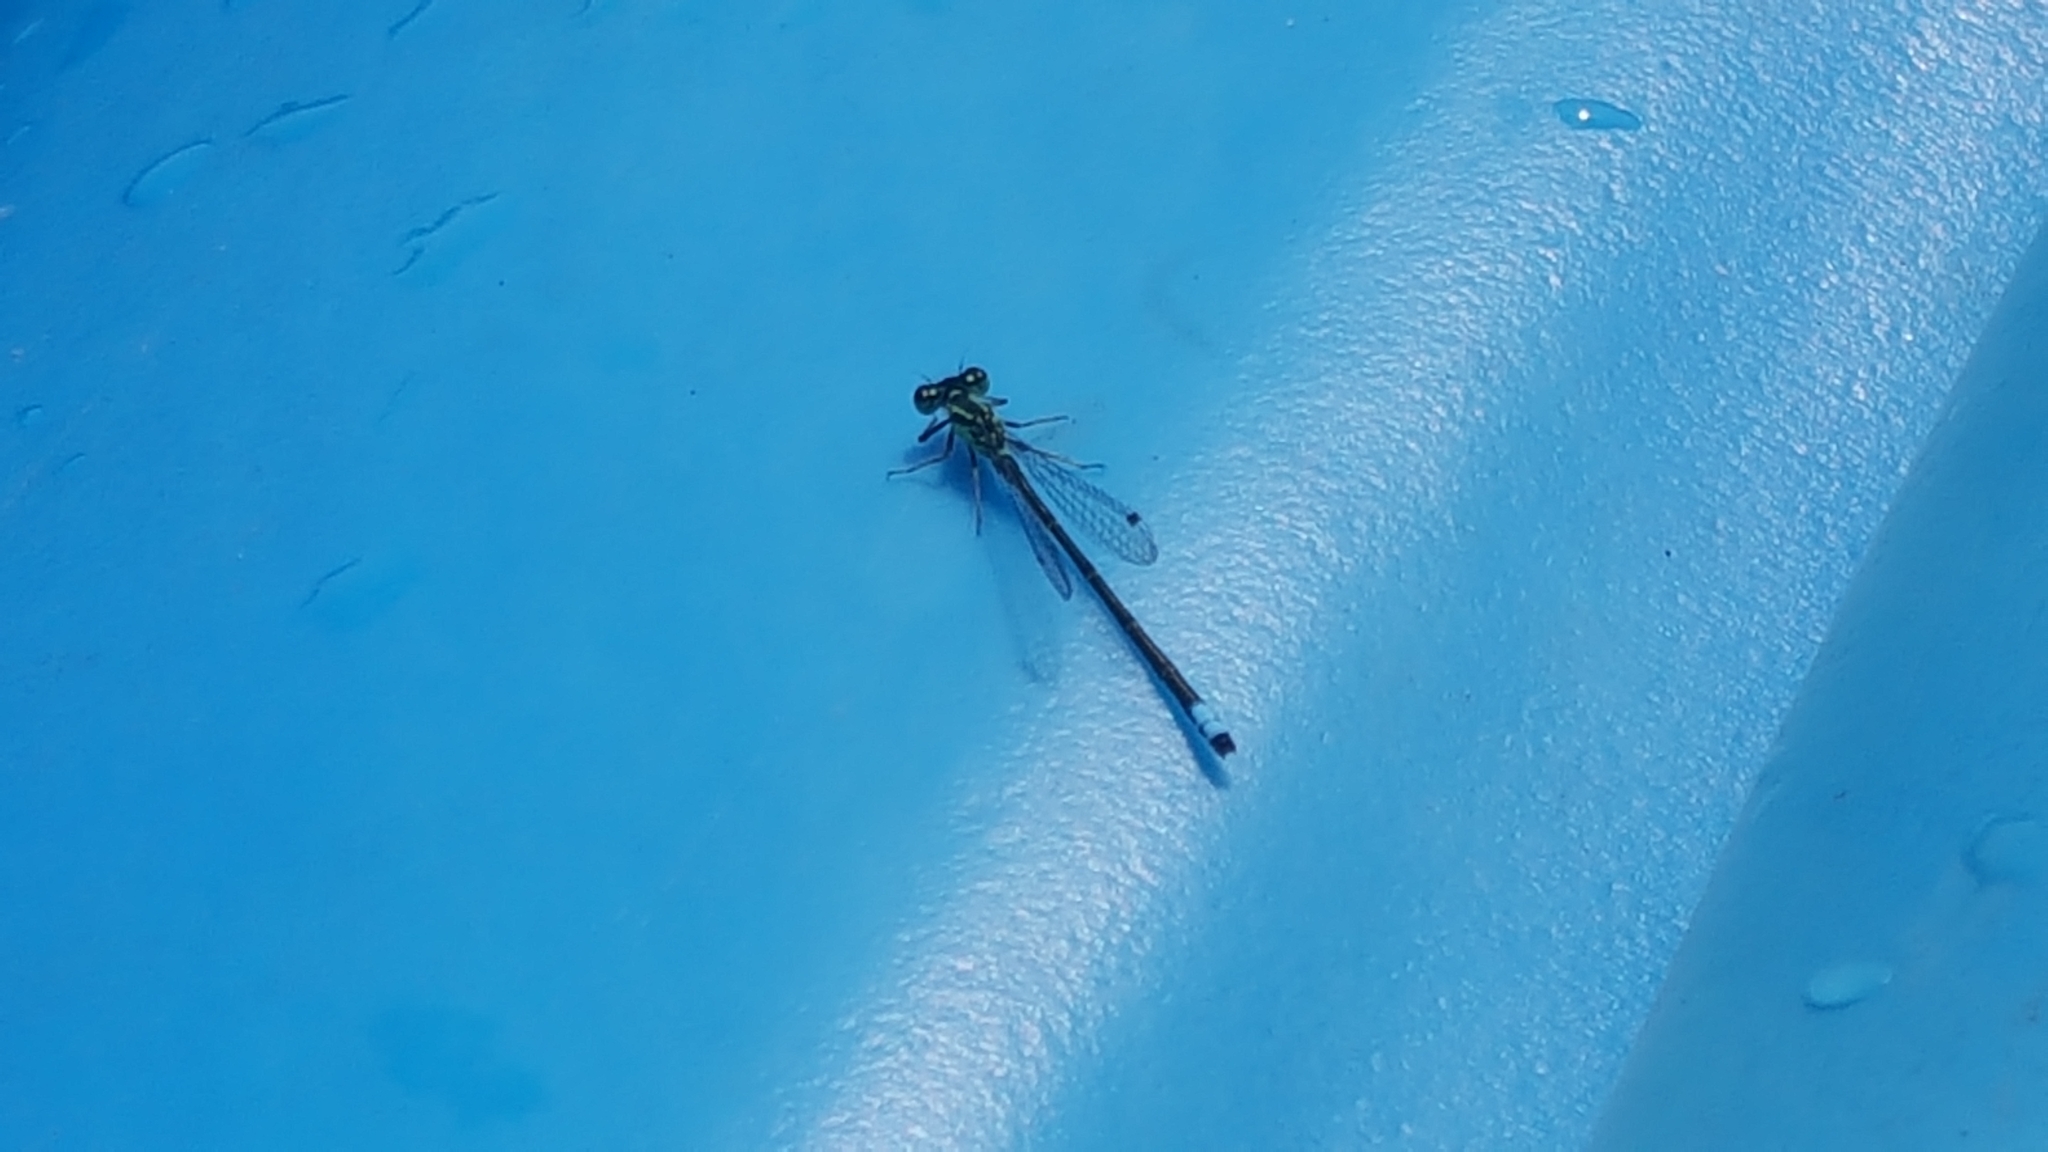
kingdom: Animalia
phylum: Arthropoda
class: Insecta
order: Odonata
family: Coenagrionidae
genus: Ischnura
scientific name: Ischnura verticalis
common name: Eastern forktail
